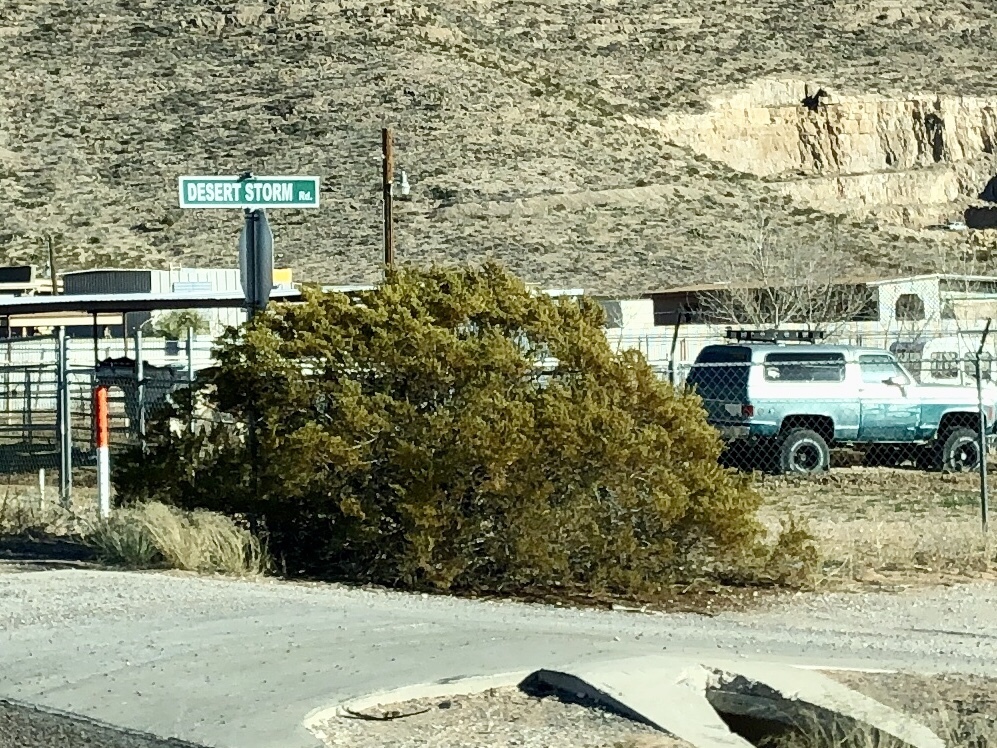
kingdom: Plantae
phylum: Tracheophyta
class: Magnoliopsida
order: Zygophyllales
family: Zygophyllaceae
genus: Larrea
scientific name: Larrea tridentata
